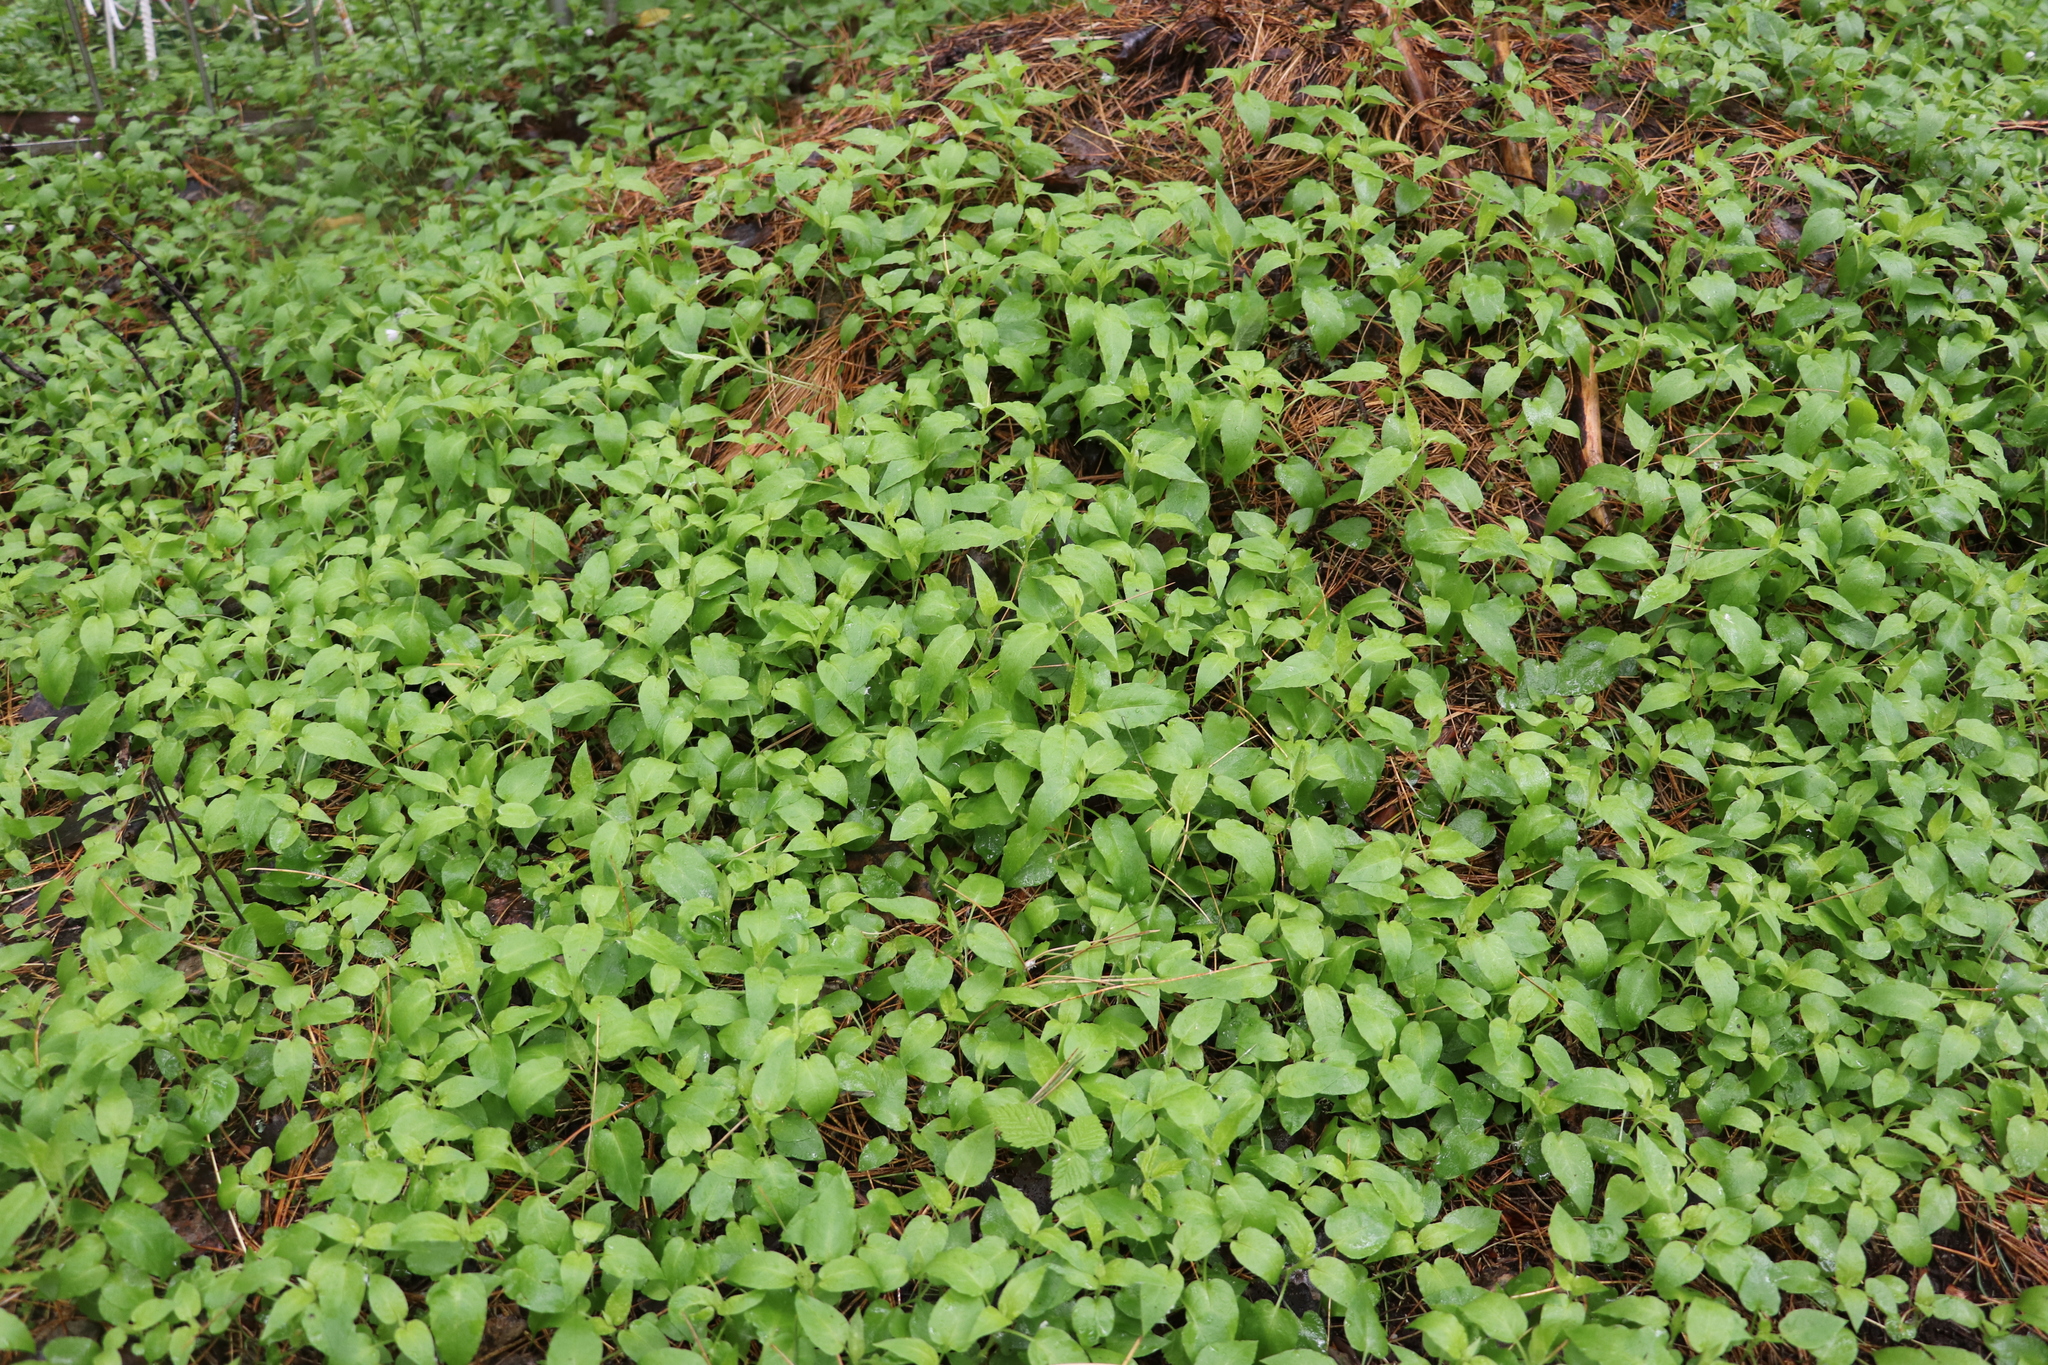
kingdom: Plantae
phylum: Tracheophyta
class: Magnoliopsida
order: Caryophyllales
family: Caryophyllaceae
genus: Stellaria
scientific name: Stellaria bungeana
